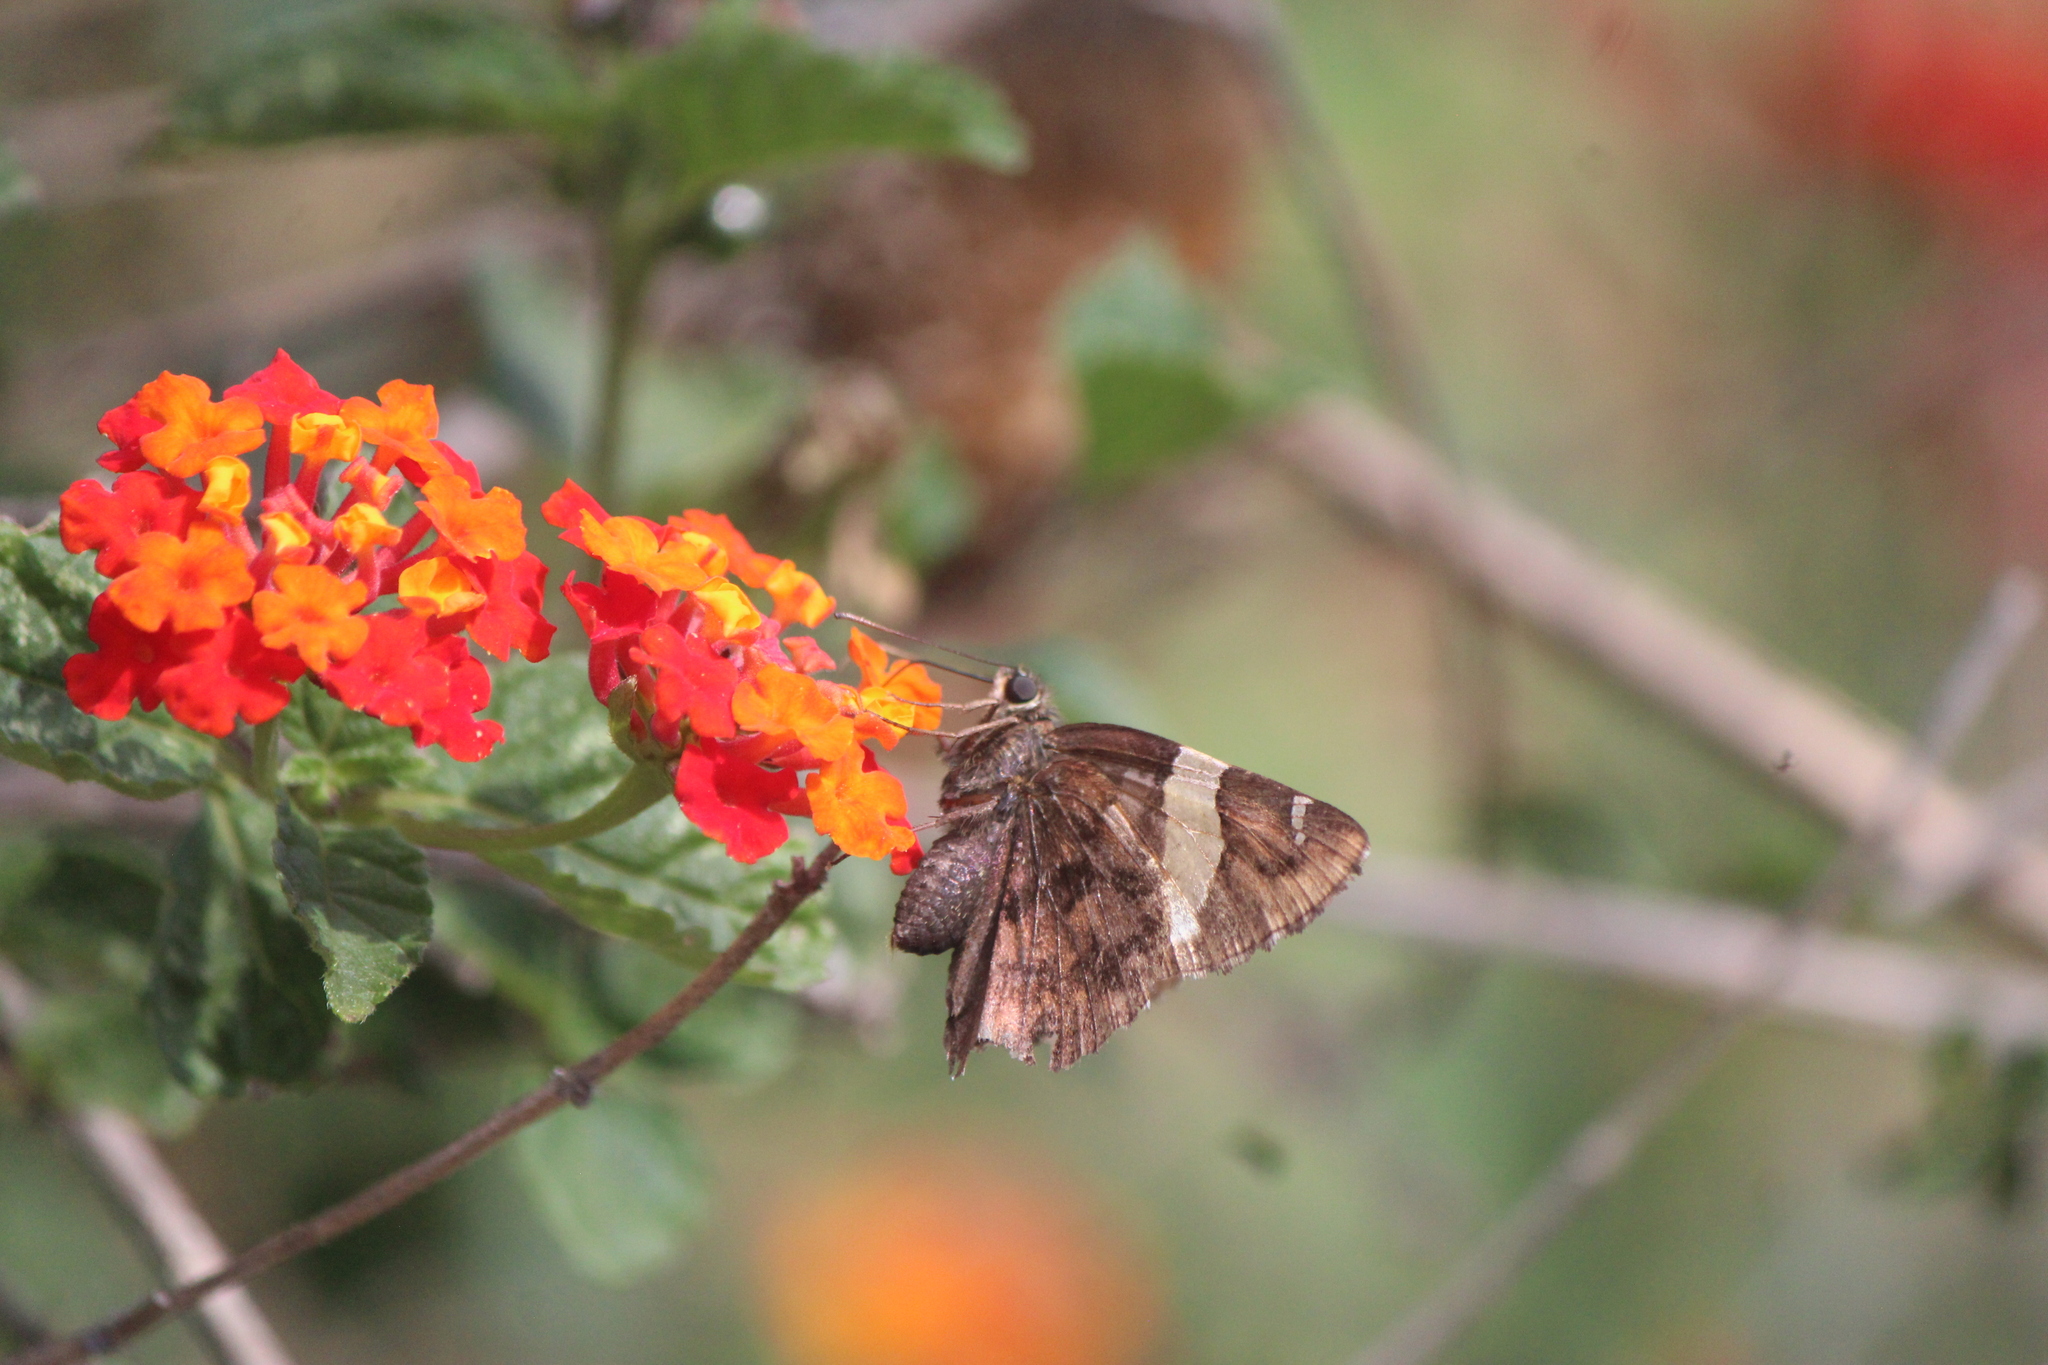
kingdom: Animalia
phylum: Arthropoda
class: Arachnida
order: Scorpiones
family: Bothriuridae
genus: Telegonus
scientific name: Telegonus cellus
